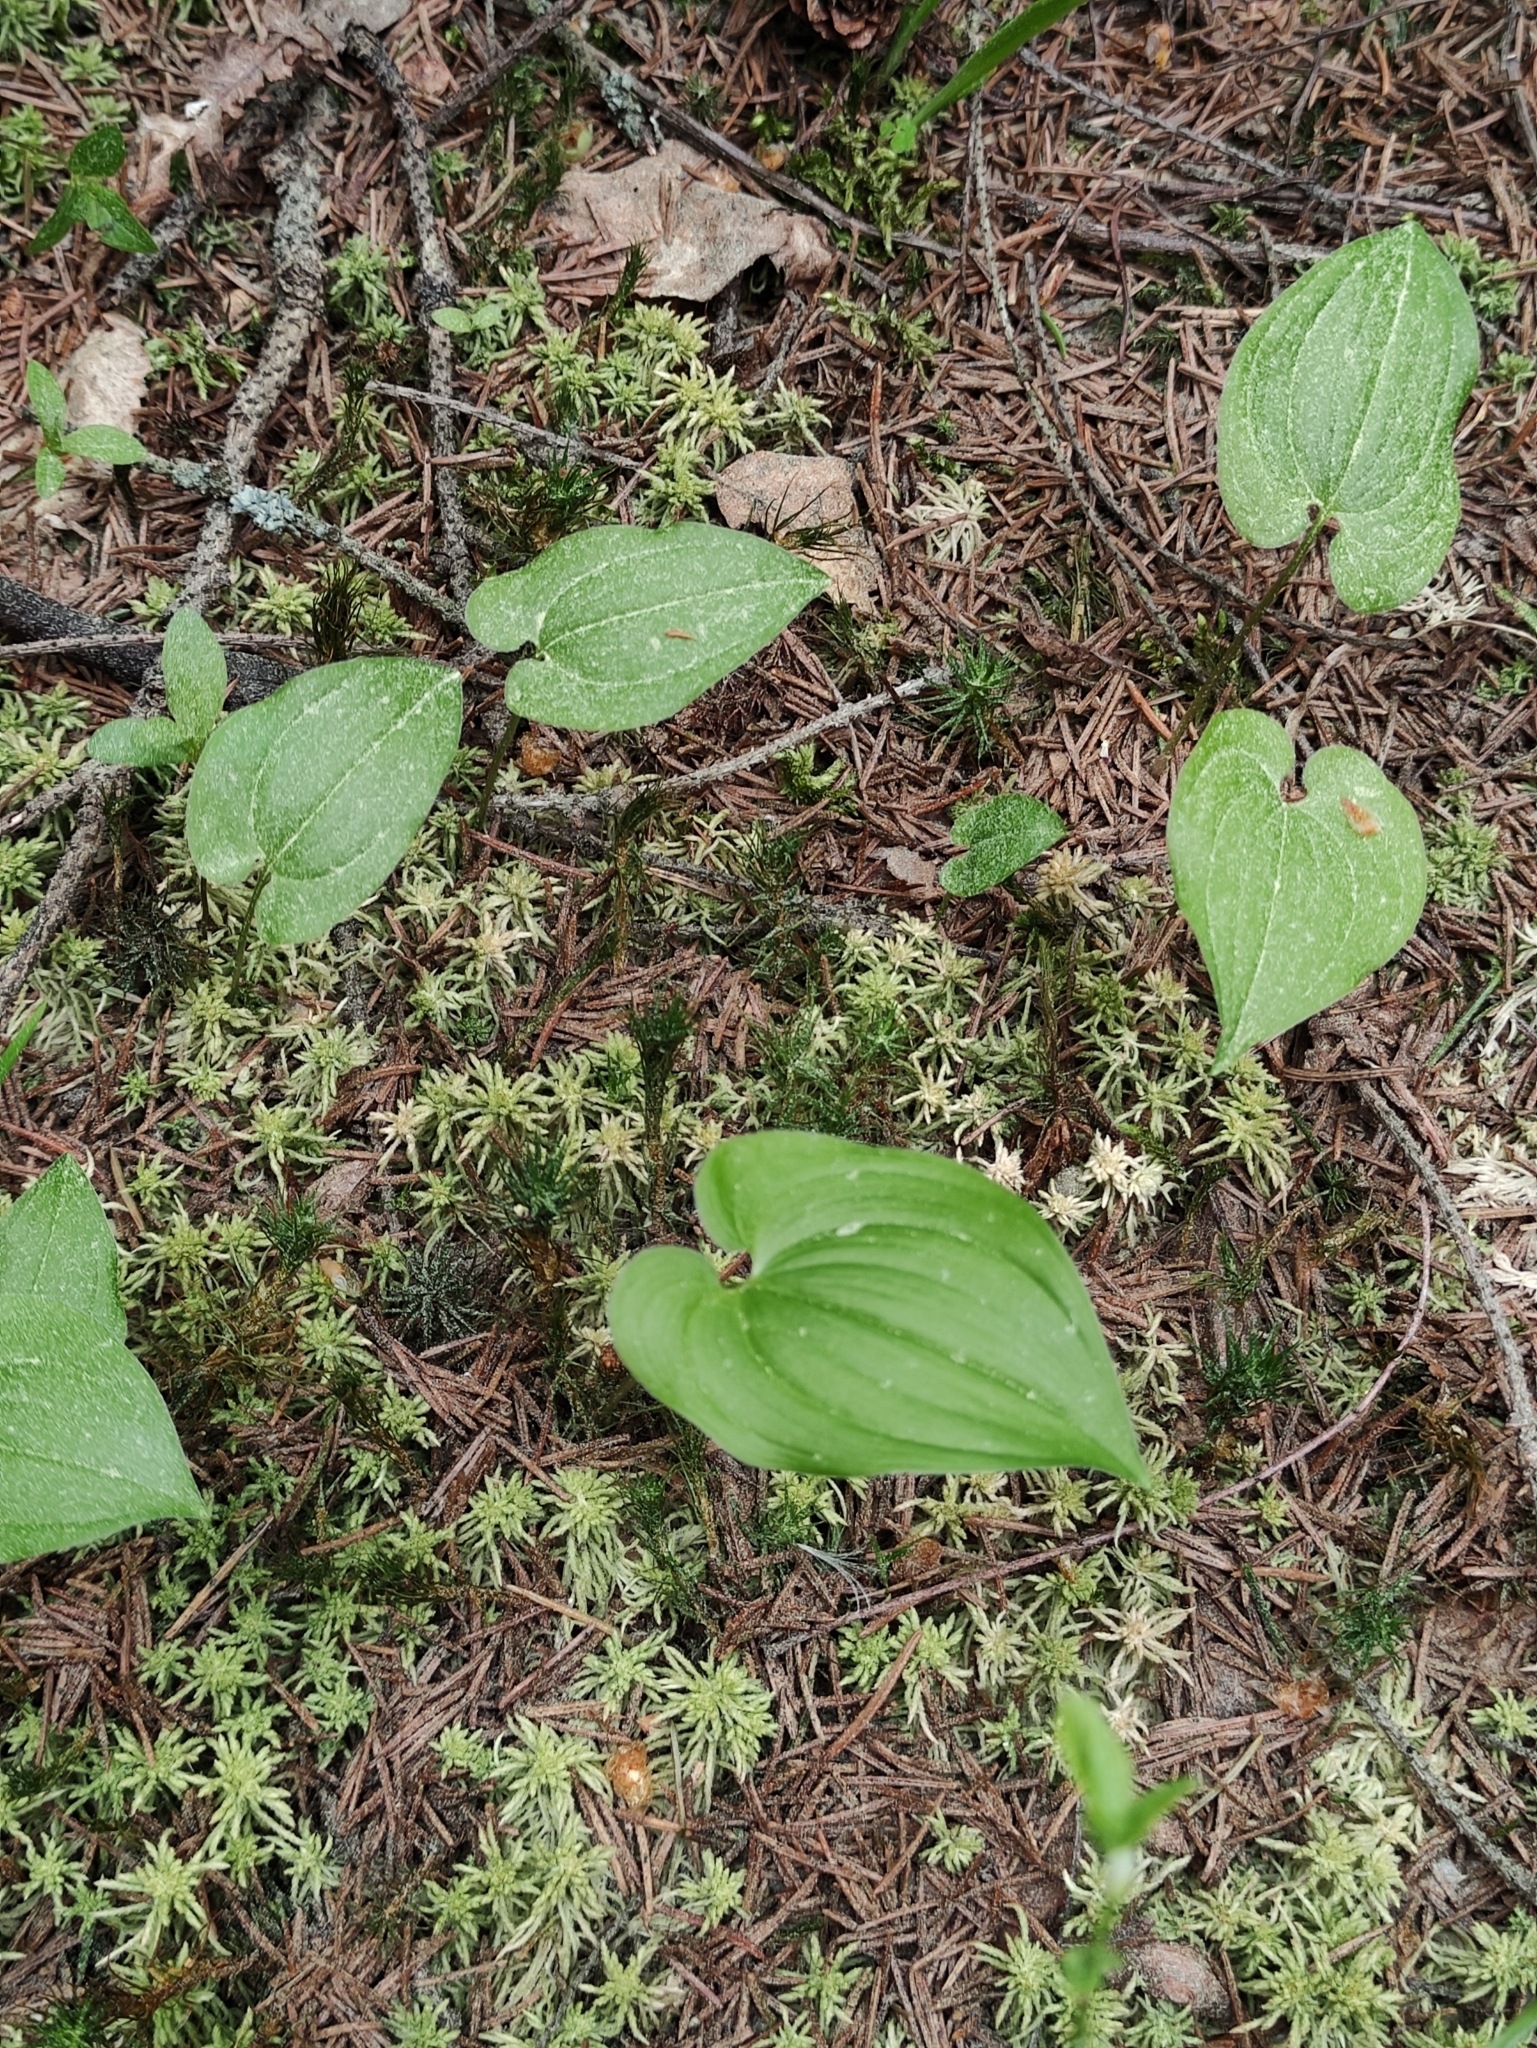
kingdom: Plantae
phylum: Tracheophyta
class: Liliopsida
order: Asparagales
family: Asparagaceae
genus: Maianthemum
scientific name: Maianthemum bifolium
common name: May lily
